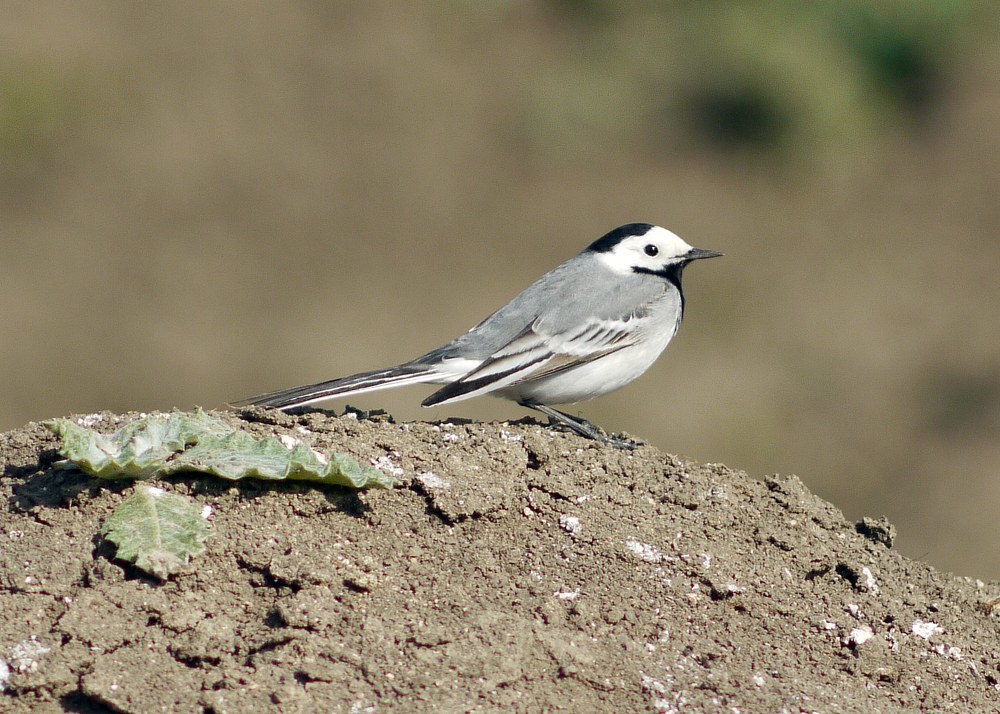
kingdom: Animalia
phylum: Chordata
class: Aves
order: Passeriformes
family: Motacillidae
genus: Motacilla
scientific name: Motacilla alba
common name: White wagtail
